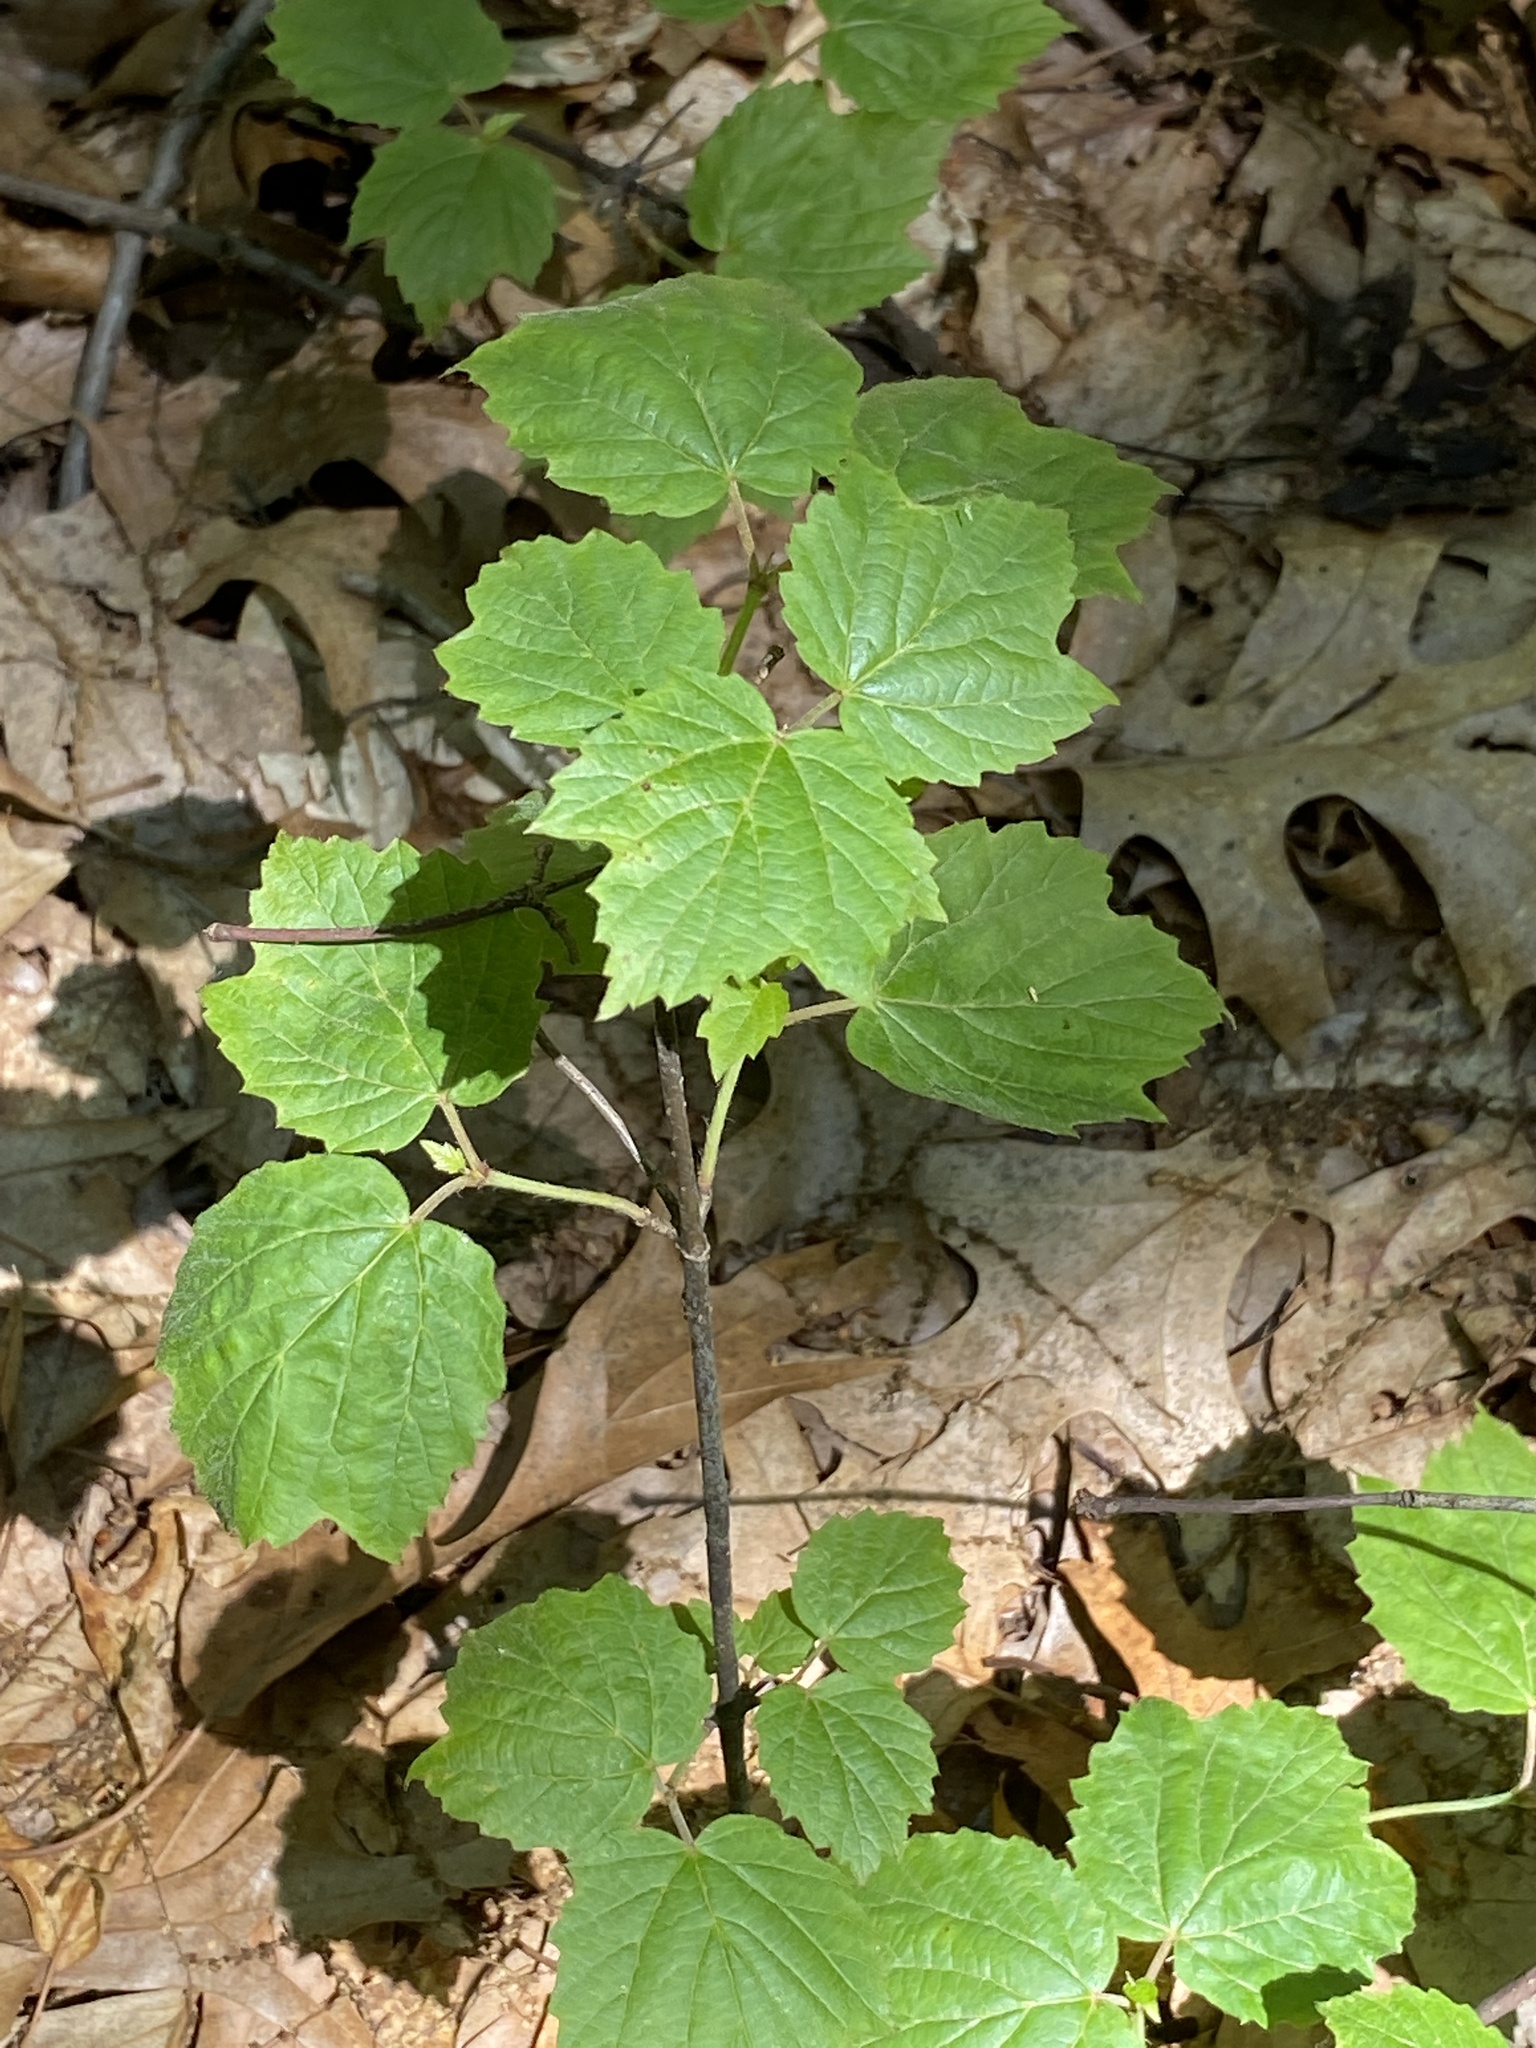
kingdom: Plantae
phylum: Tracheophyta
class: Magnoliopsida
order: Dipsacales
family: Viburnaceae
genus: Viburnum
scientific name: Viburnum acerifolium
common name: Dockmackie
